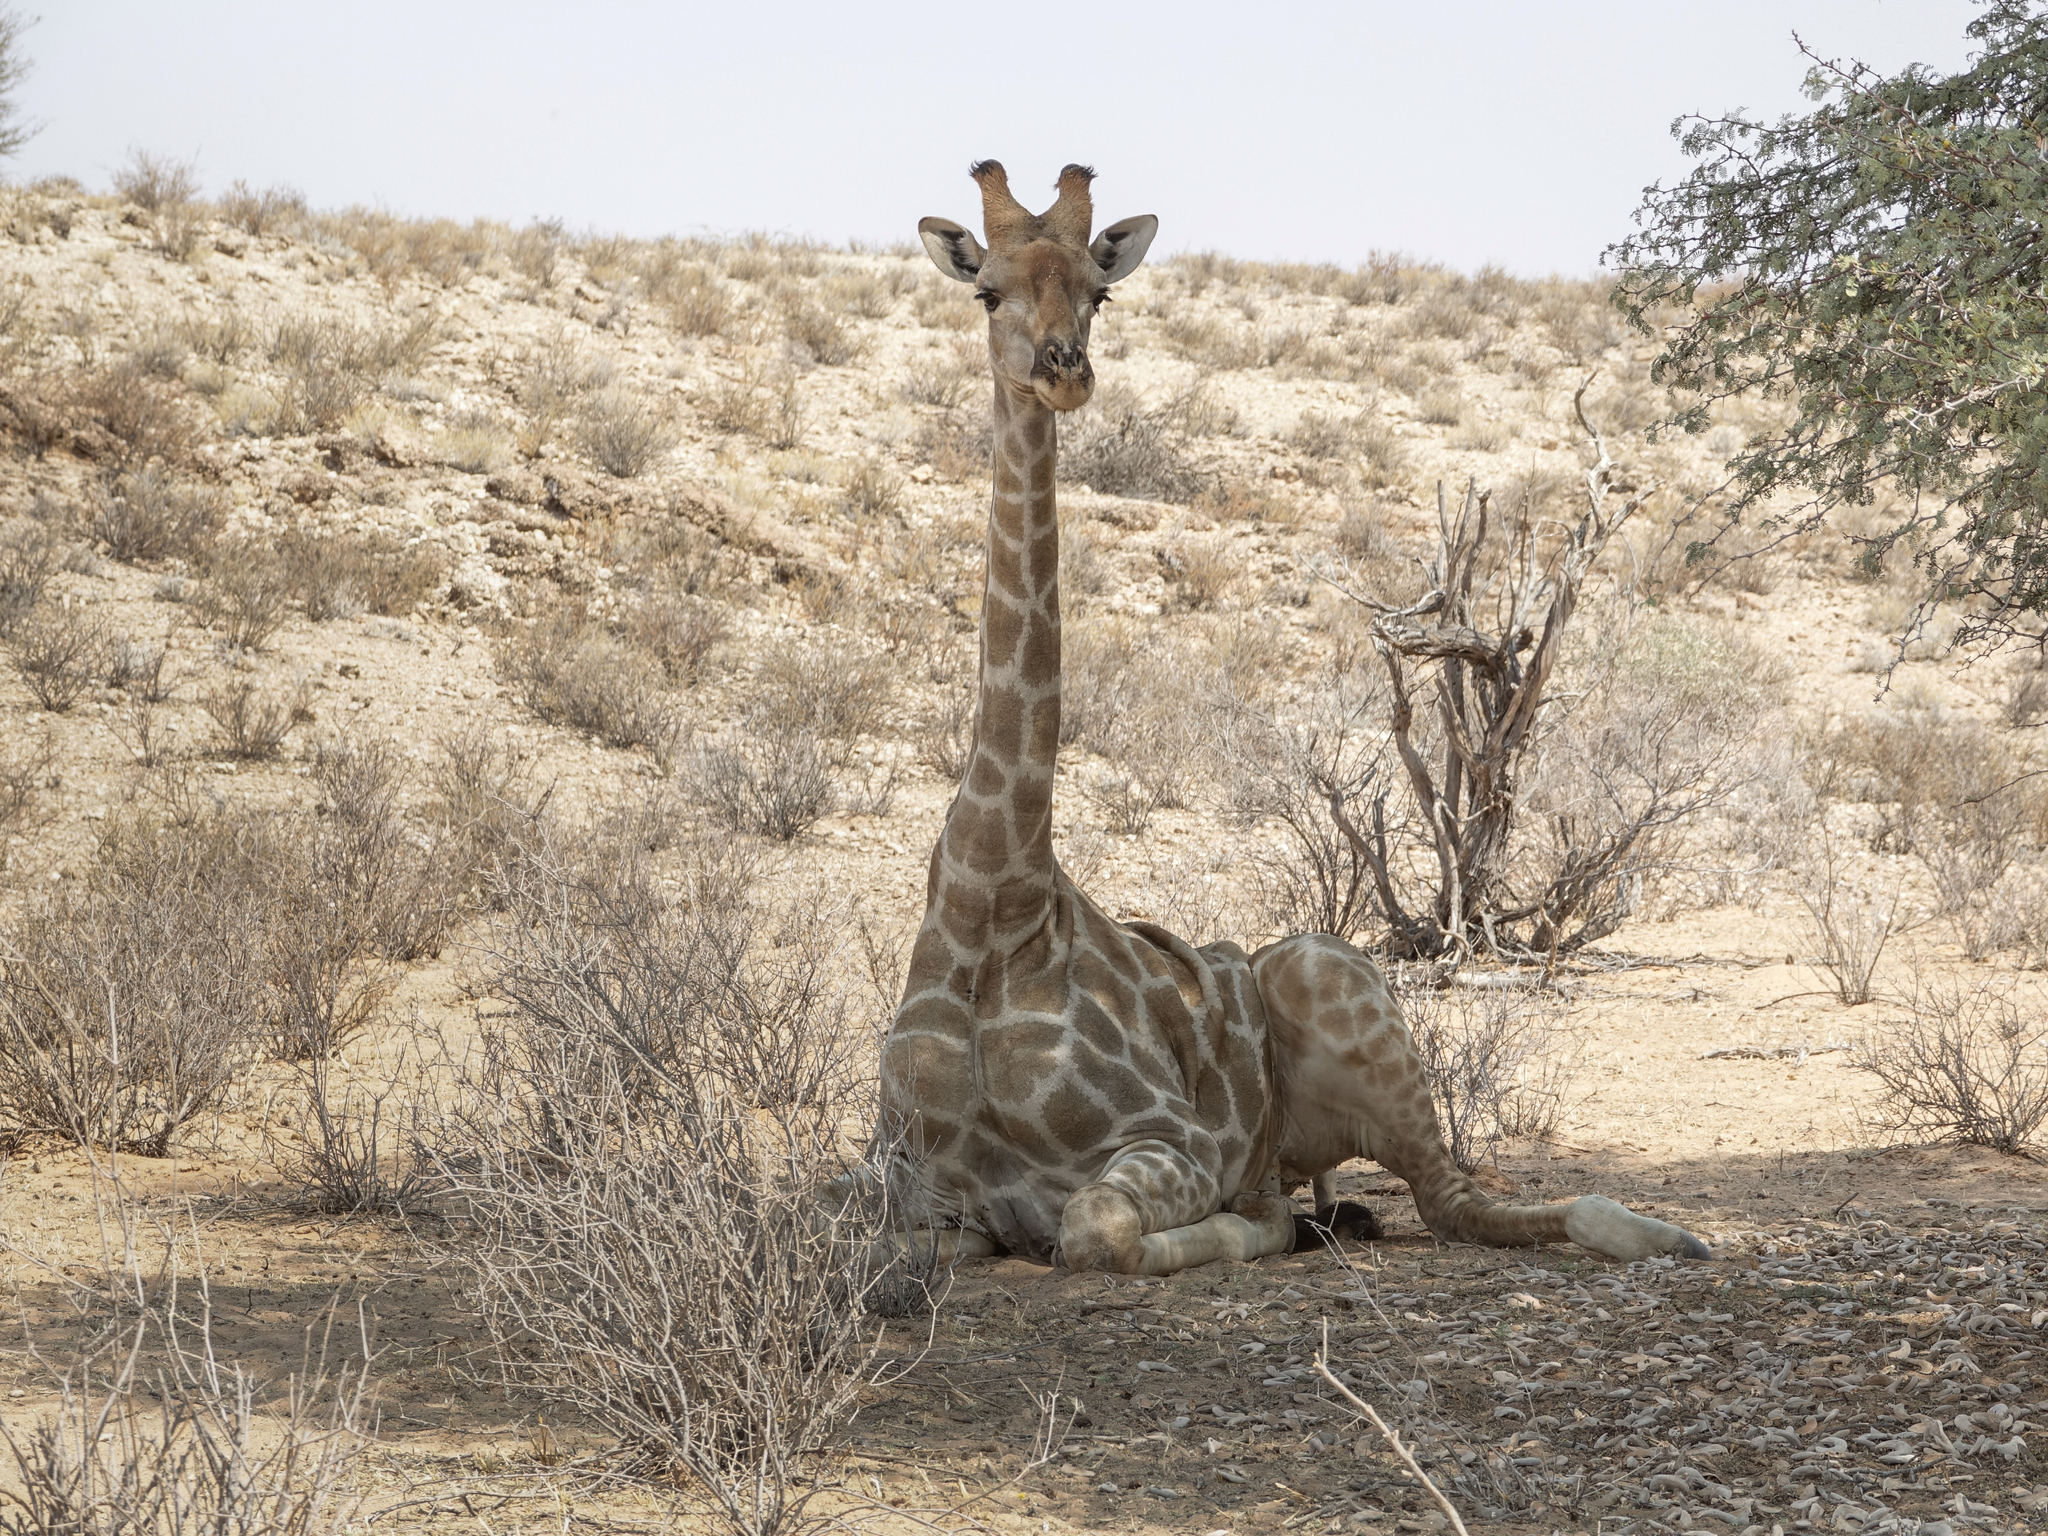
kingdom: Animalia
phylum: Chordata
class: Mammalia
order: Artiodactyla
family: Giraffidae
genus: Giraffa
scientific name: Giraffa giraffa
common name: Southern giraffe
